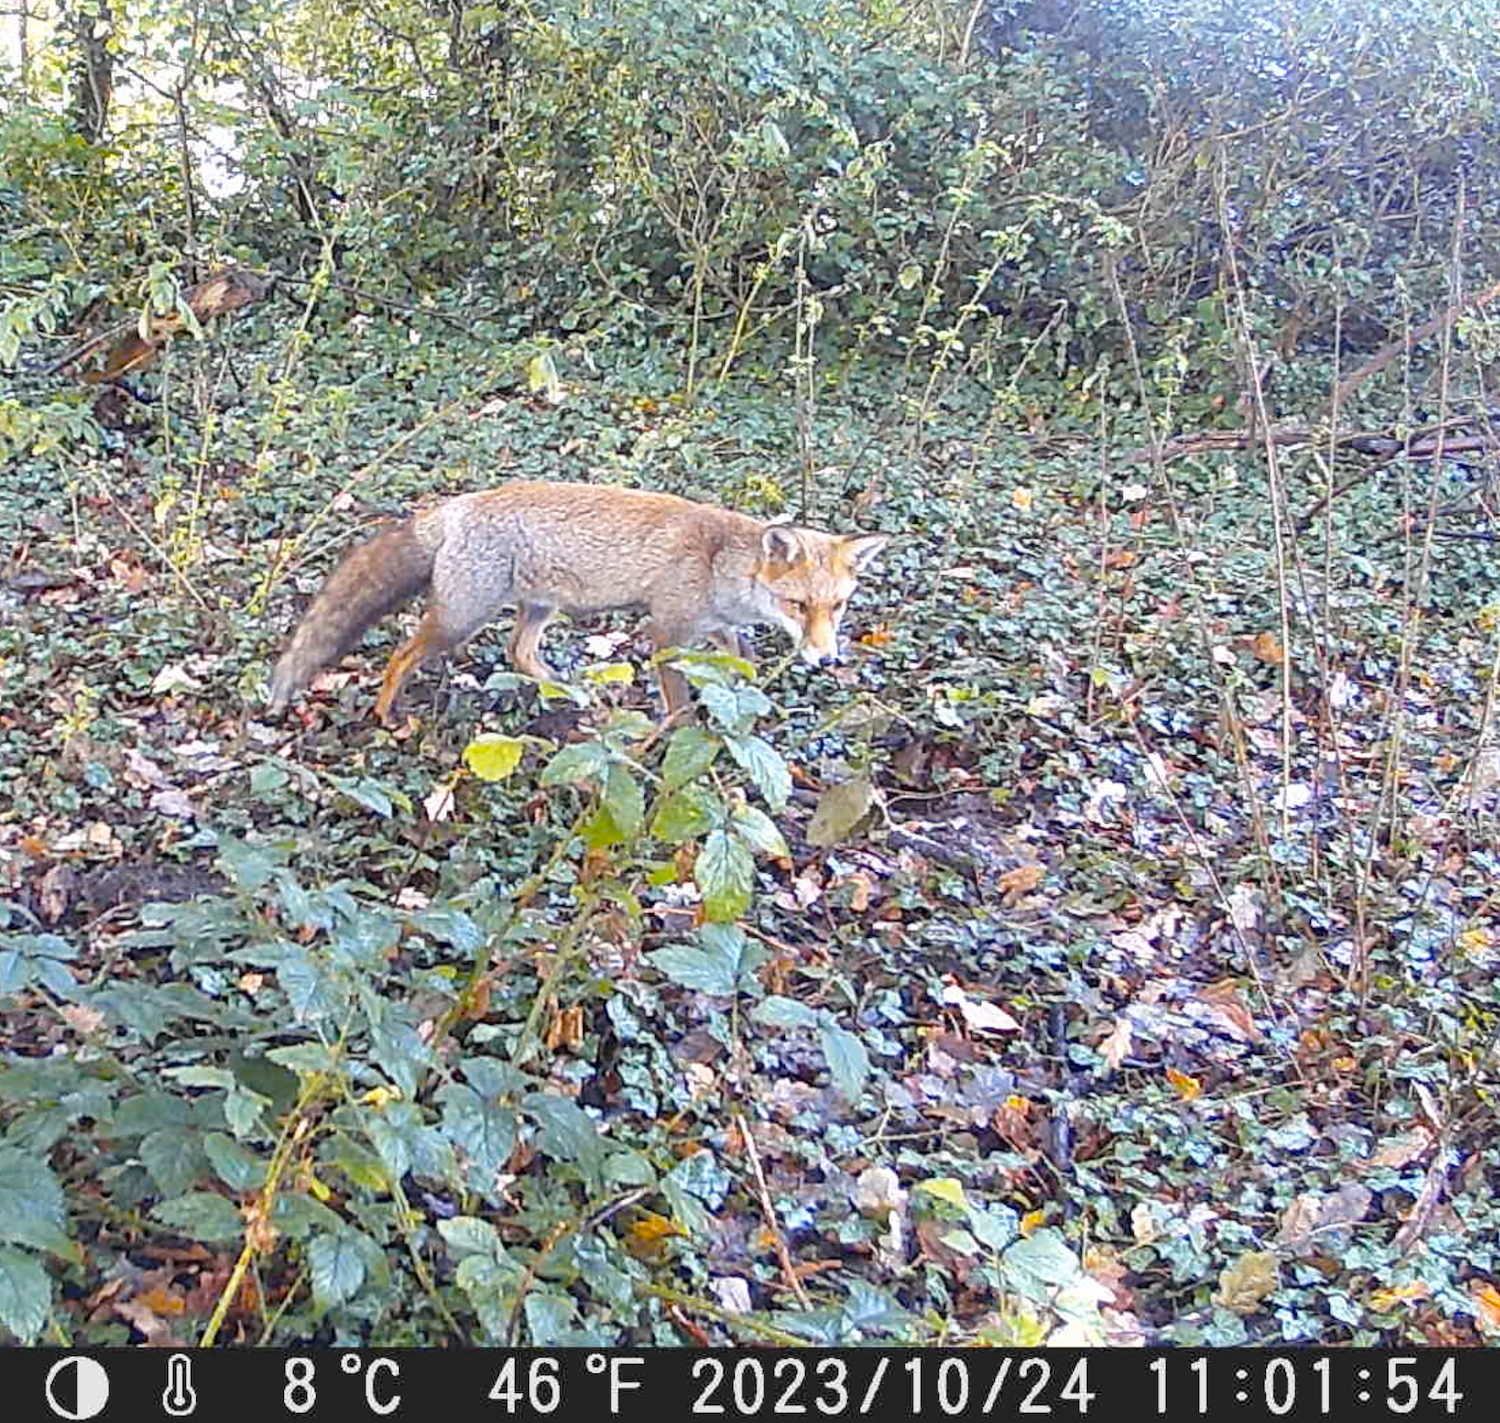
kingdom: Animalia
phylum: Chordata
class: Mammalia
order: Carnivora
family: Canidae
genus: Vulpes
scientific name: Vulpes vulpes
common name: Red fox
